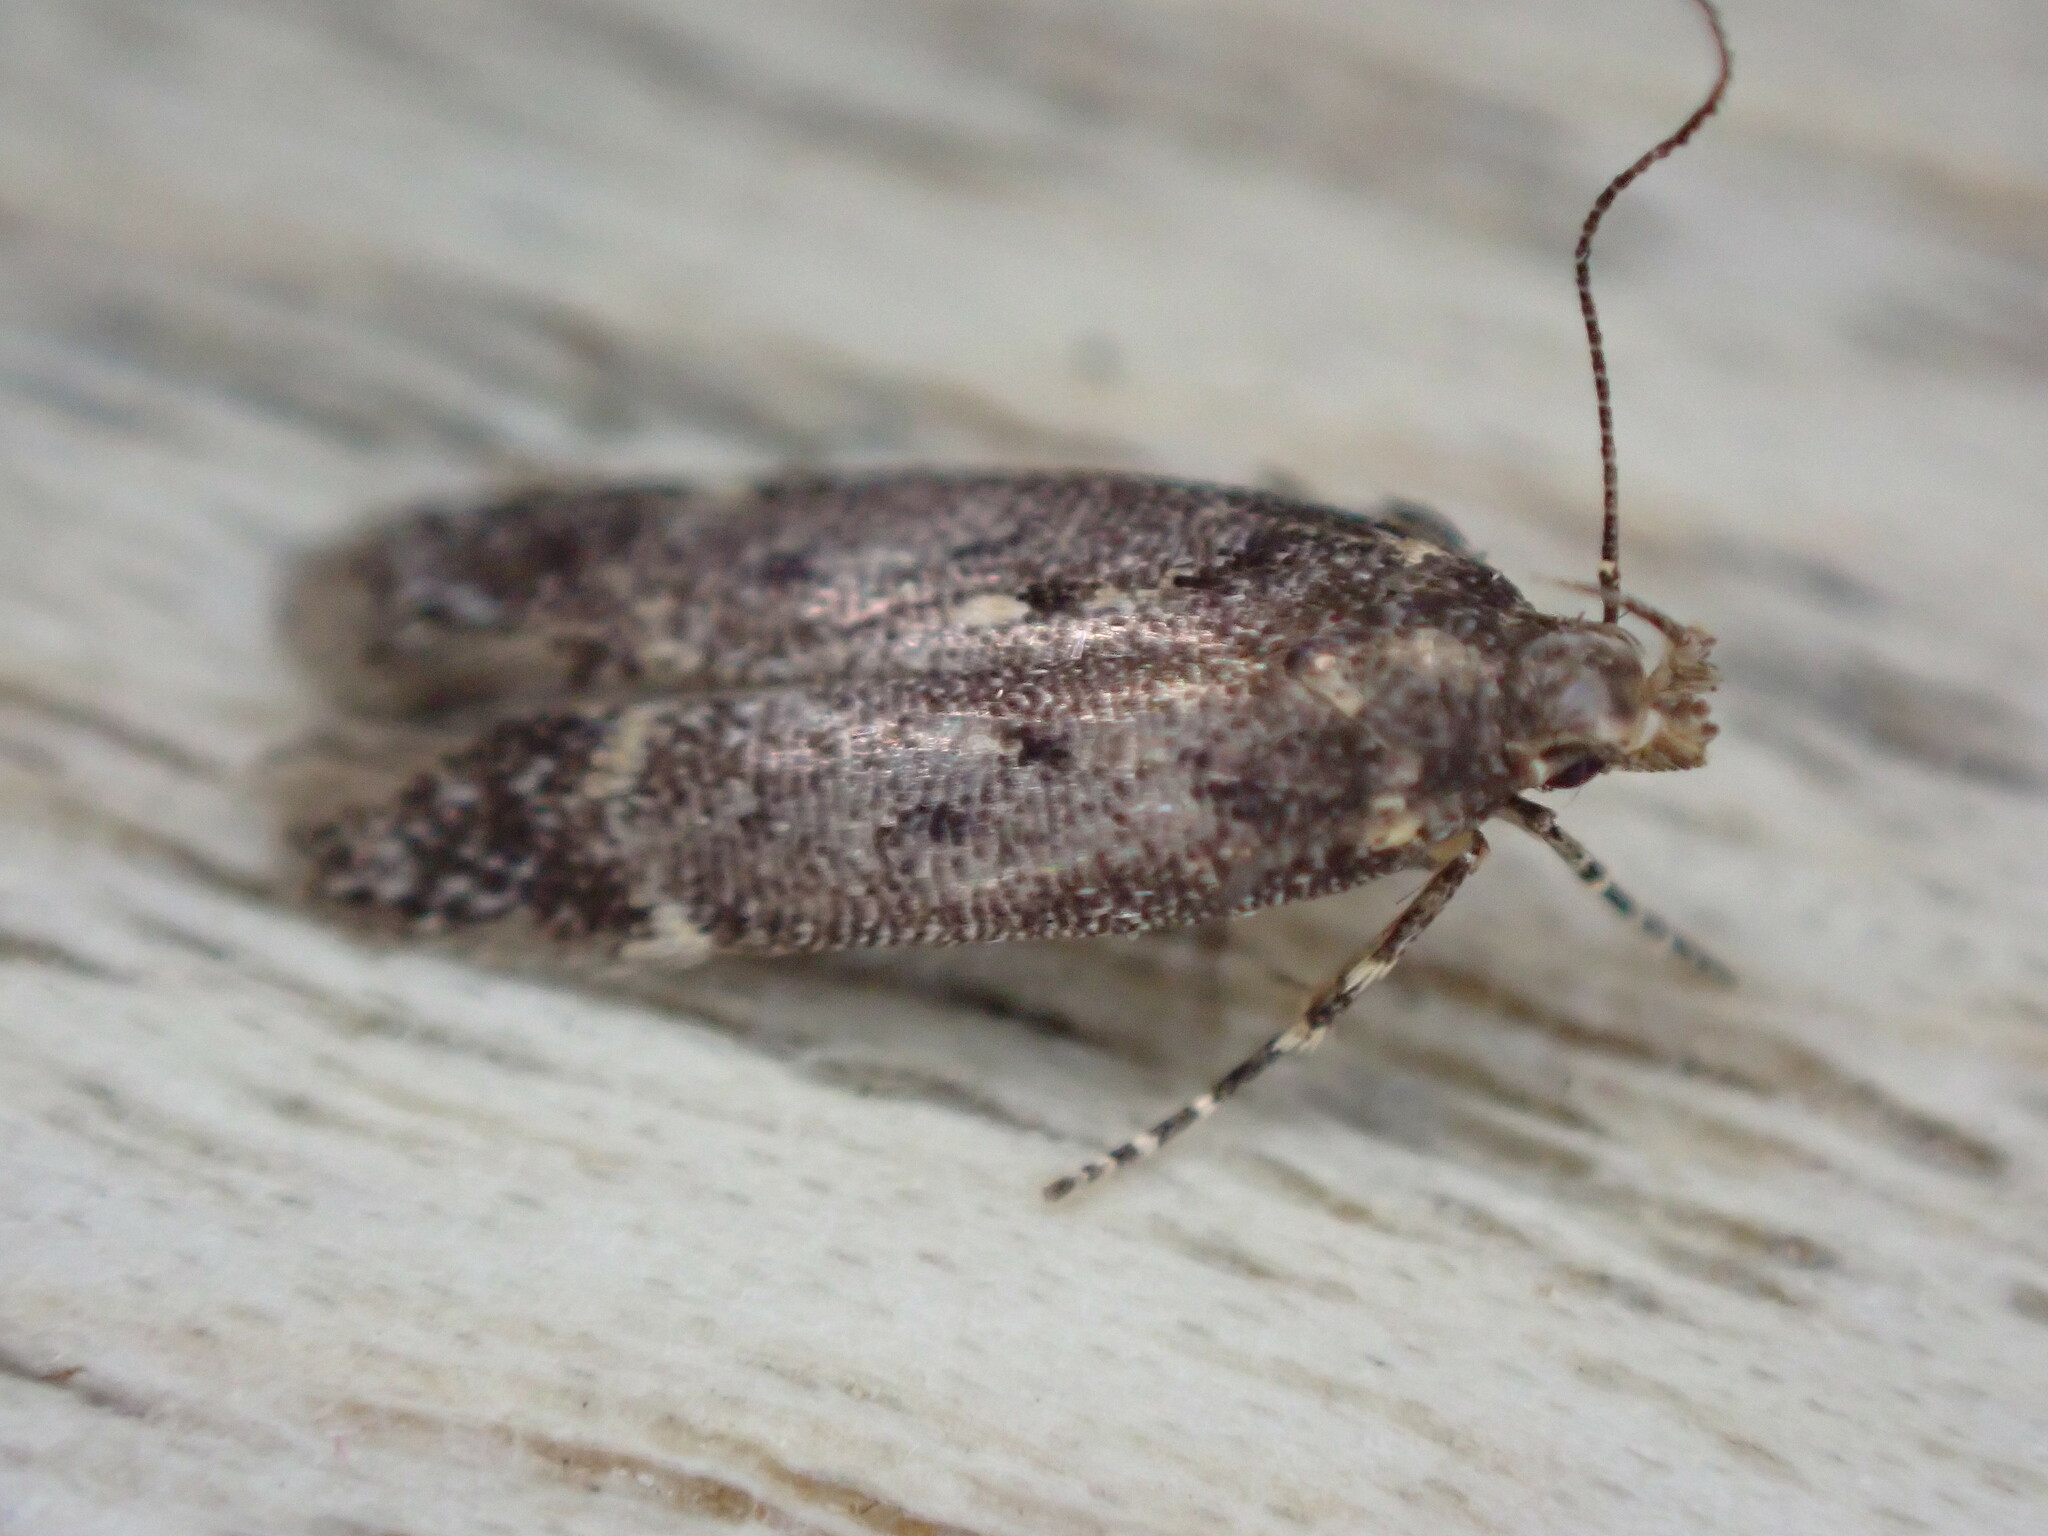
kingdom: Animalia
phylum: Arthropoda
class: Insecta
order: Lepidoptera
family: Gelechiidae
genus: Bryotropha
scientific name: Bryotropha affinis
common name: Dark groundling
